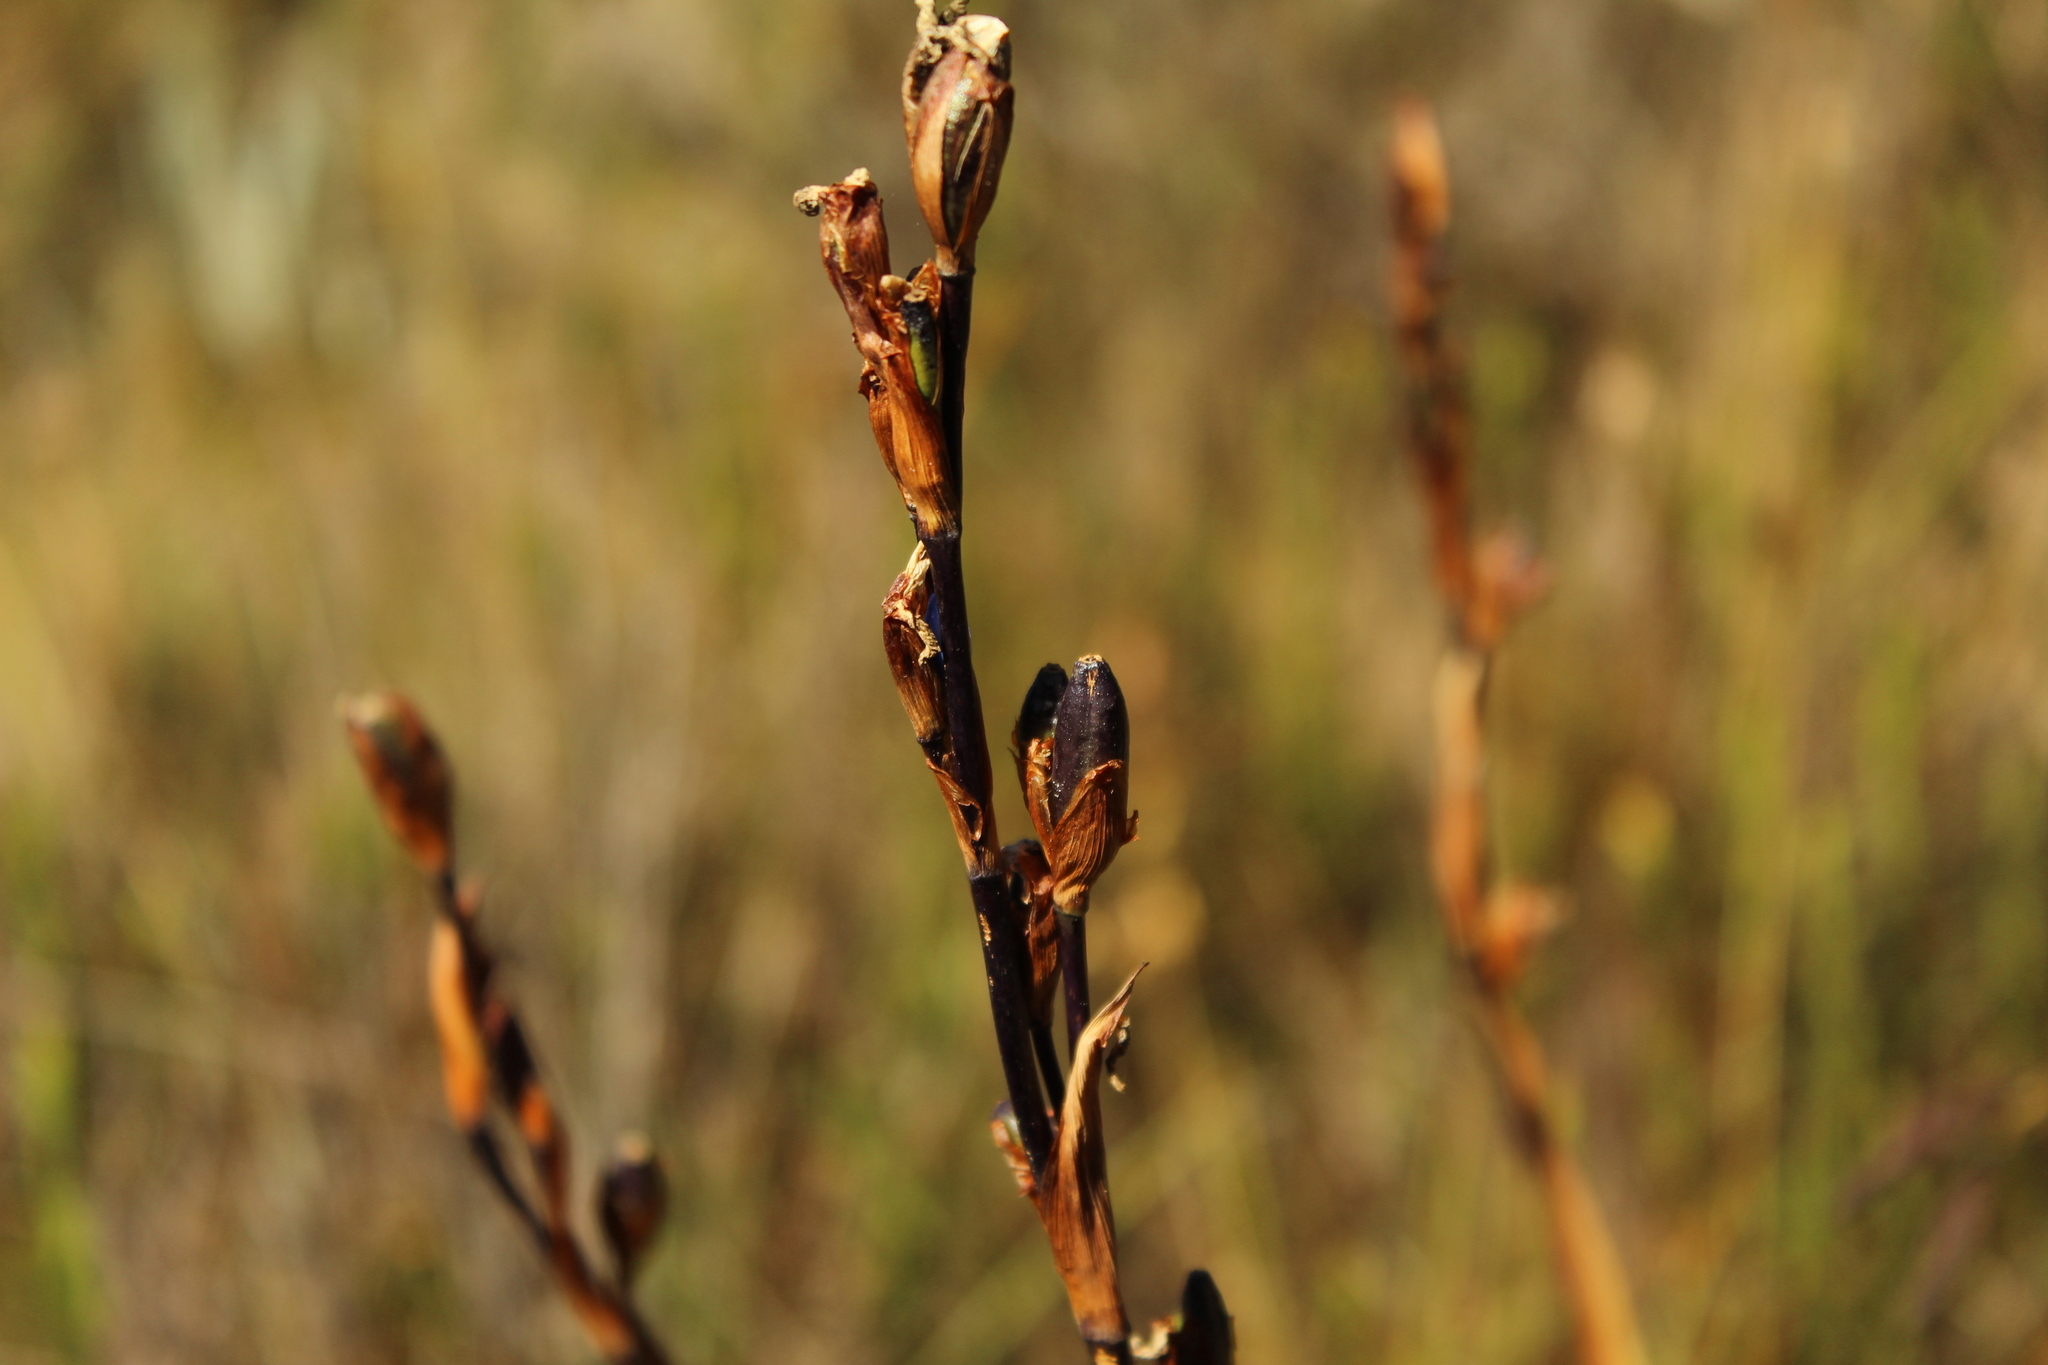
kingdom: Plantae
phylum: Tracheophyta
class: Liliopsida
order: Asparagales
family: Iridaceae
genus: Orthrosanthus
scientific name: Orthrosanthus chimboracensis
